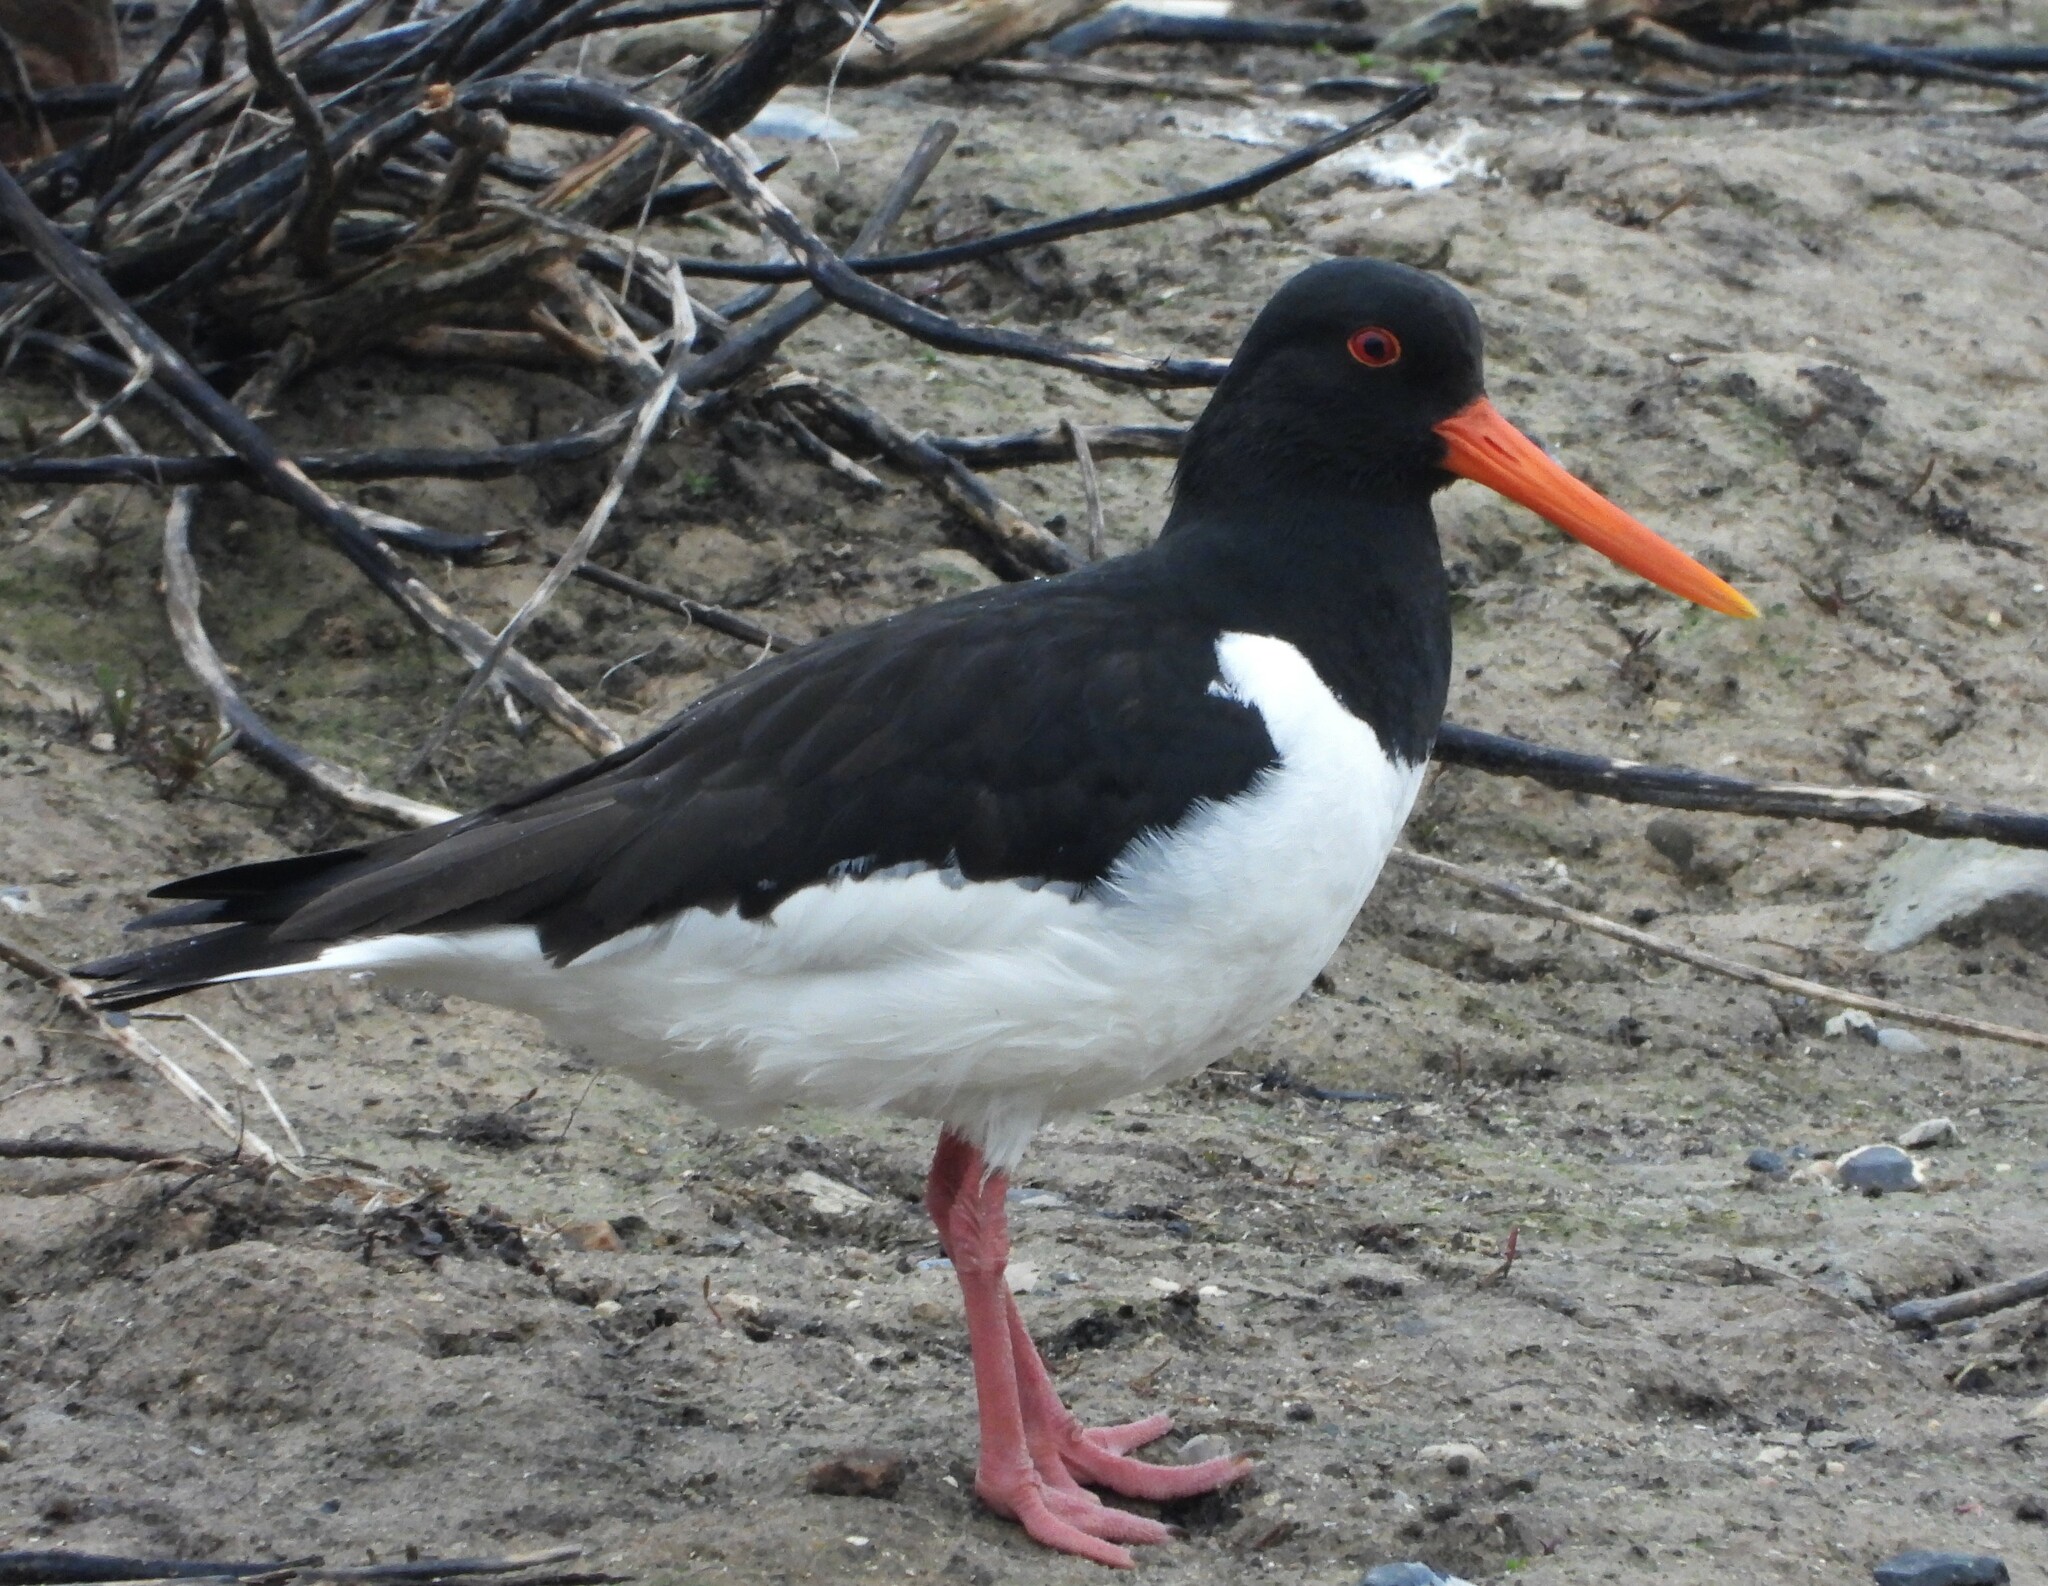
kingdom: Animalia
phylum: Chordata
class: Aves
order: Charadriiformes
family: Haematopodidae
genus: Haematopus
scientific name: Haematopus ostralegus
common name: Eurasian oystercatcher
